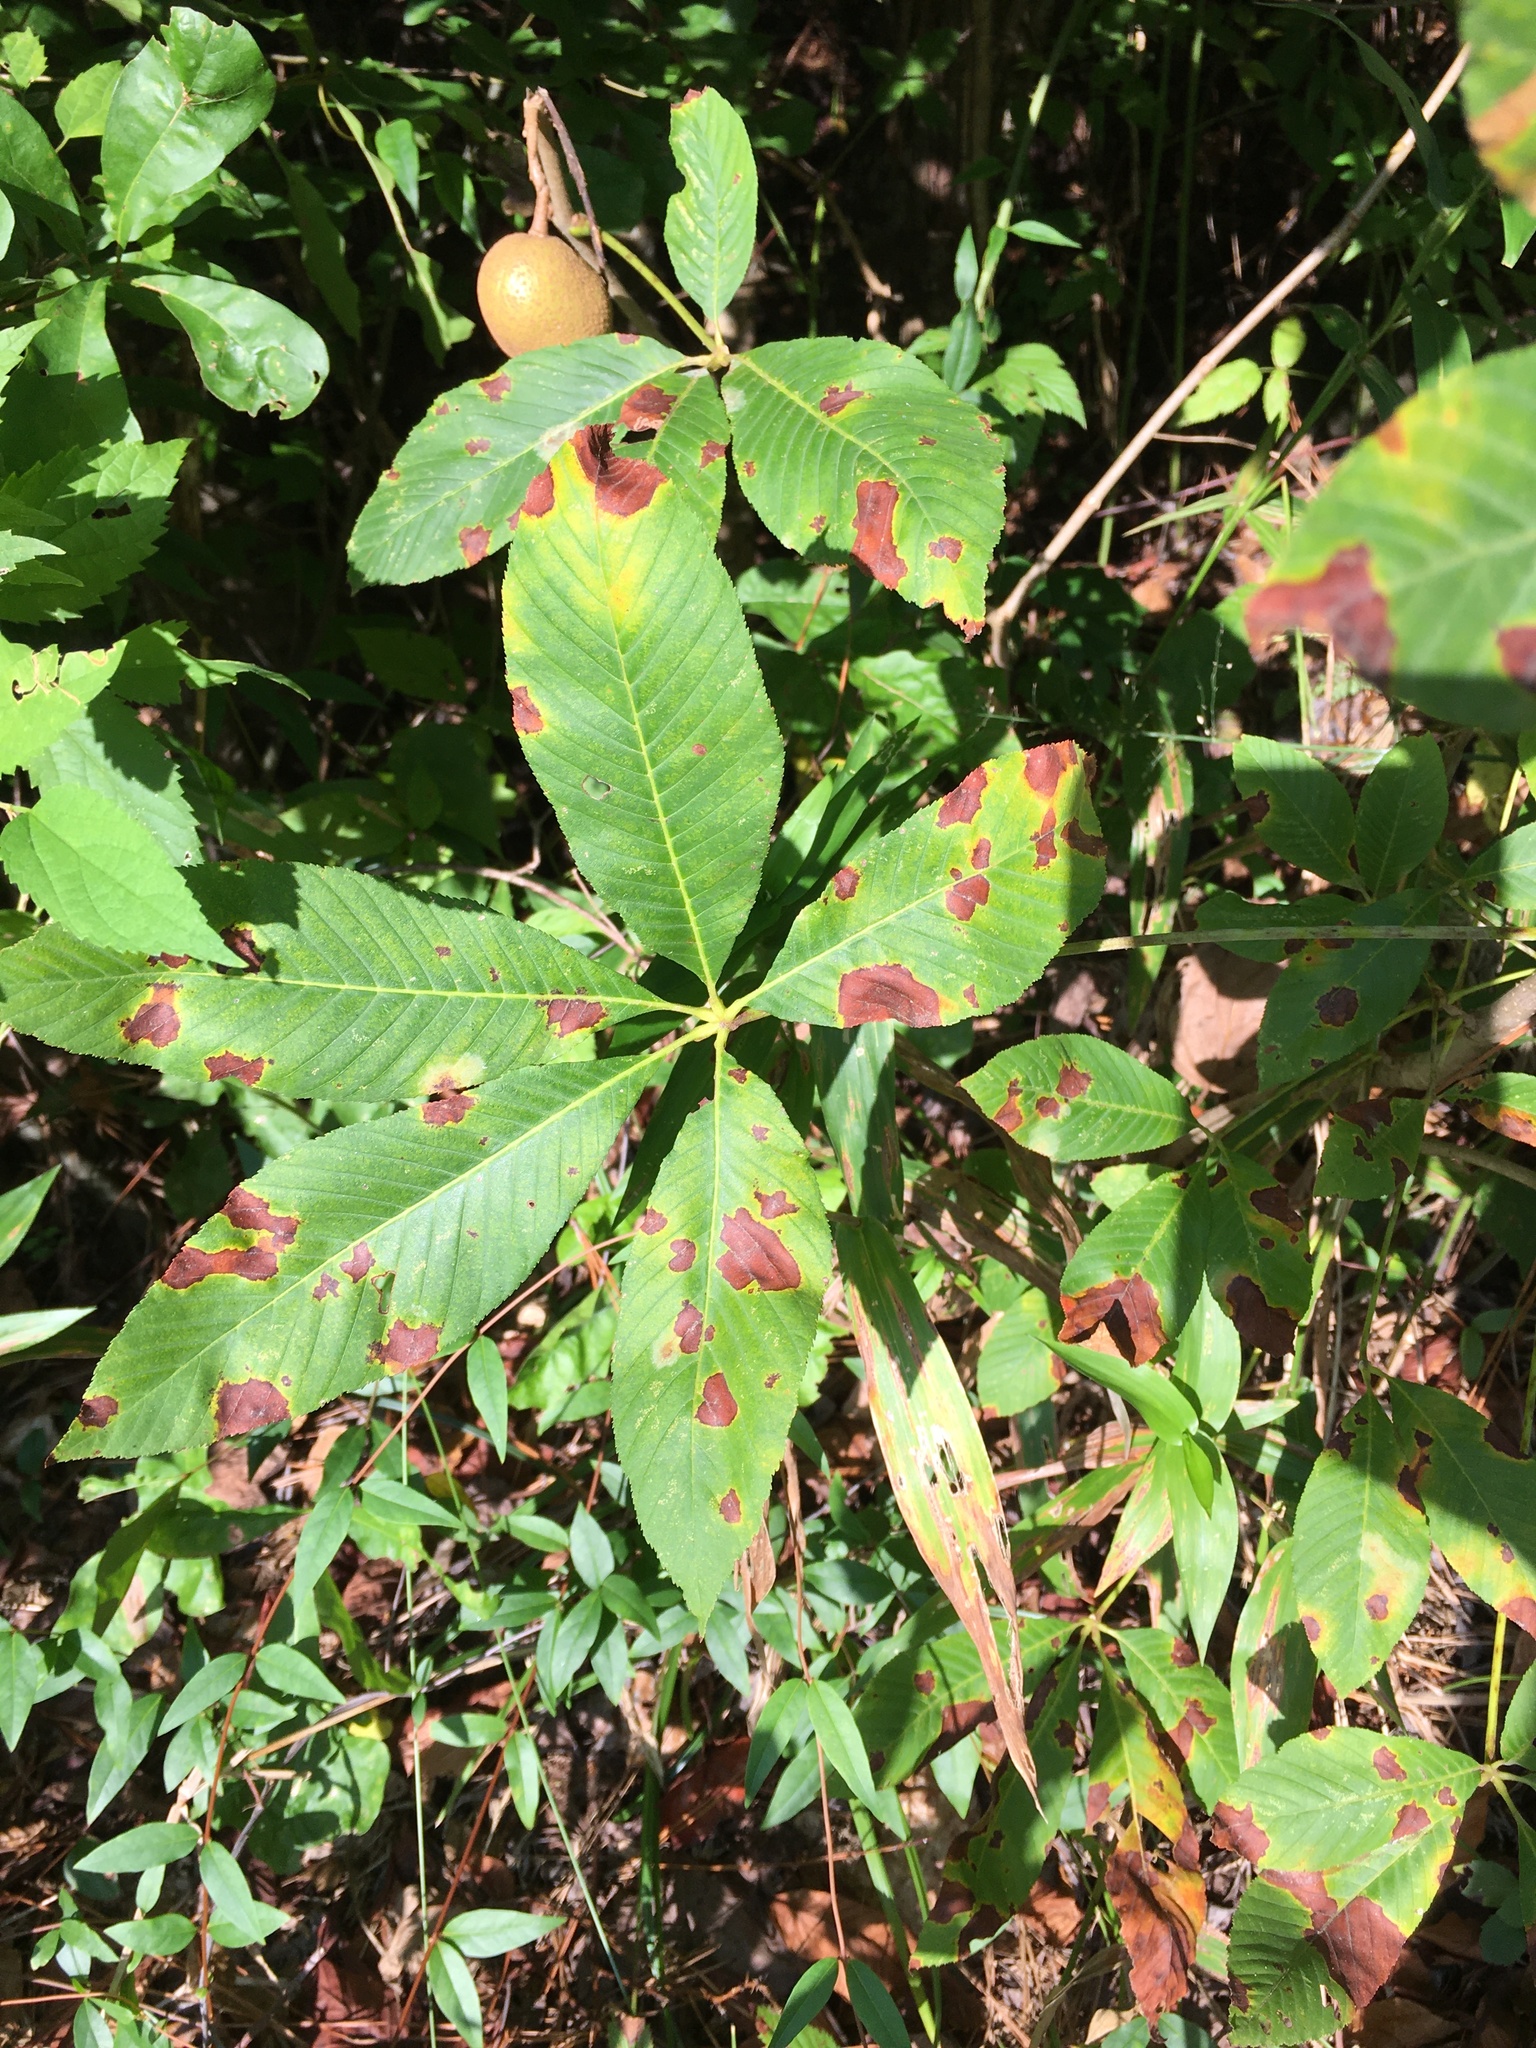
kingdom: Plantae
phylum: Tracheophyta
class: Magnoliopsida
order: Sapindales
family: Sapindaceae
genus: Aesculus
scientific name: Aesculus sylvatica
